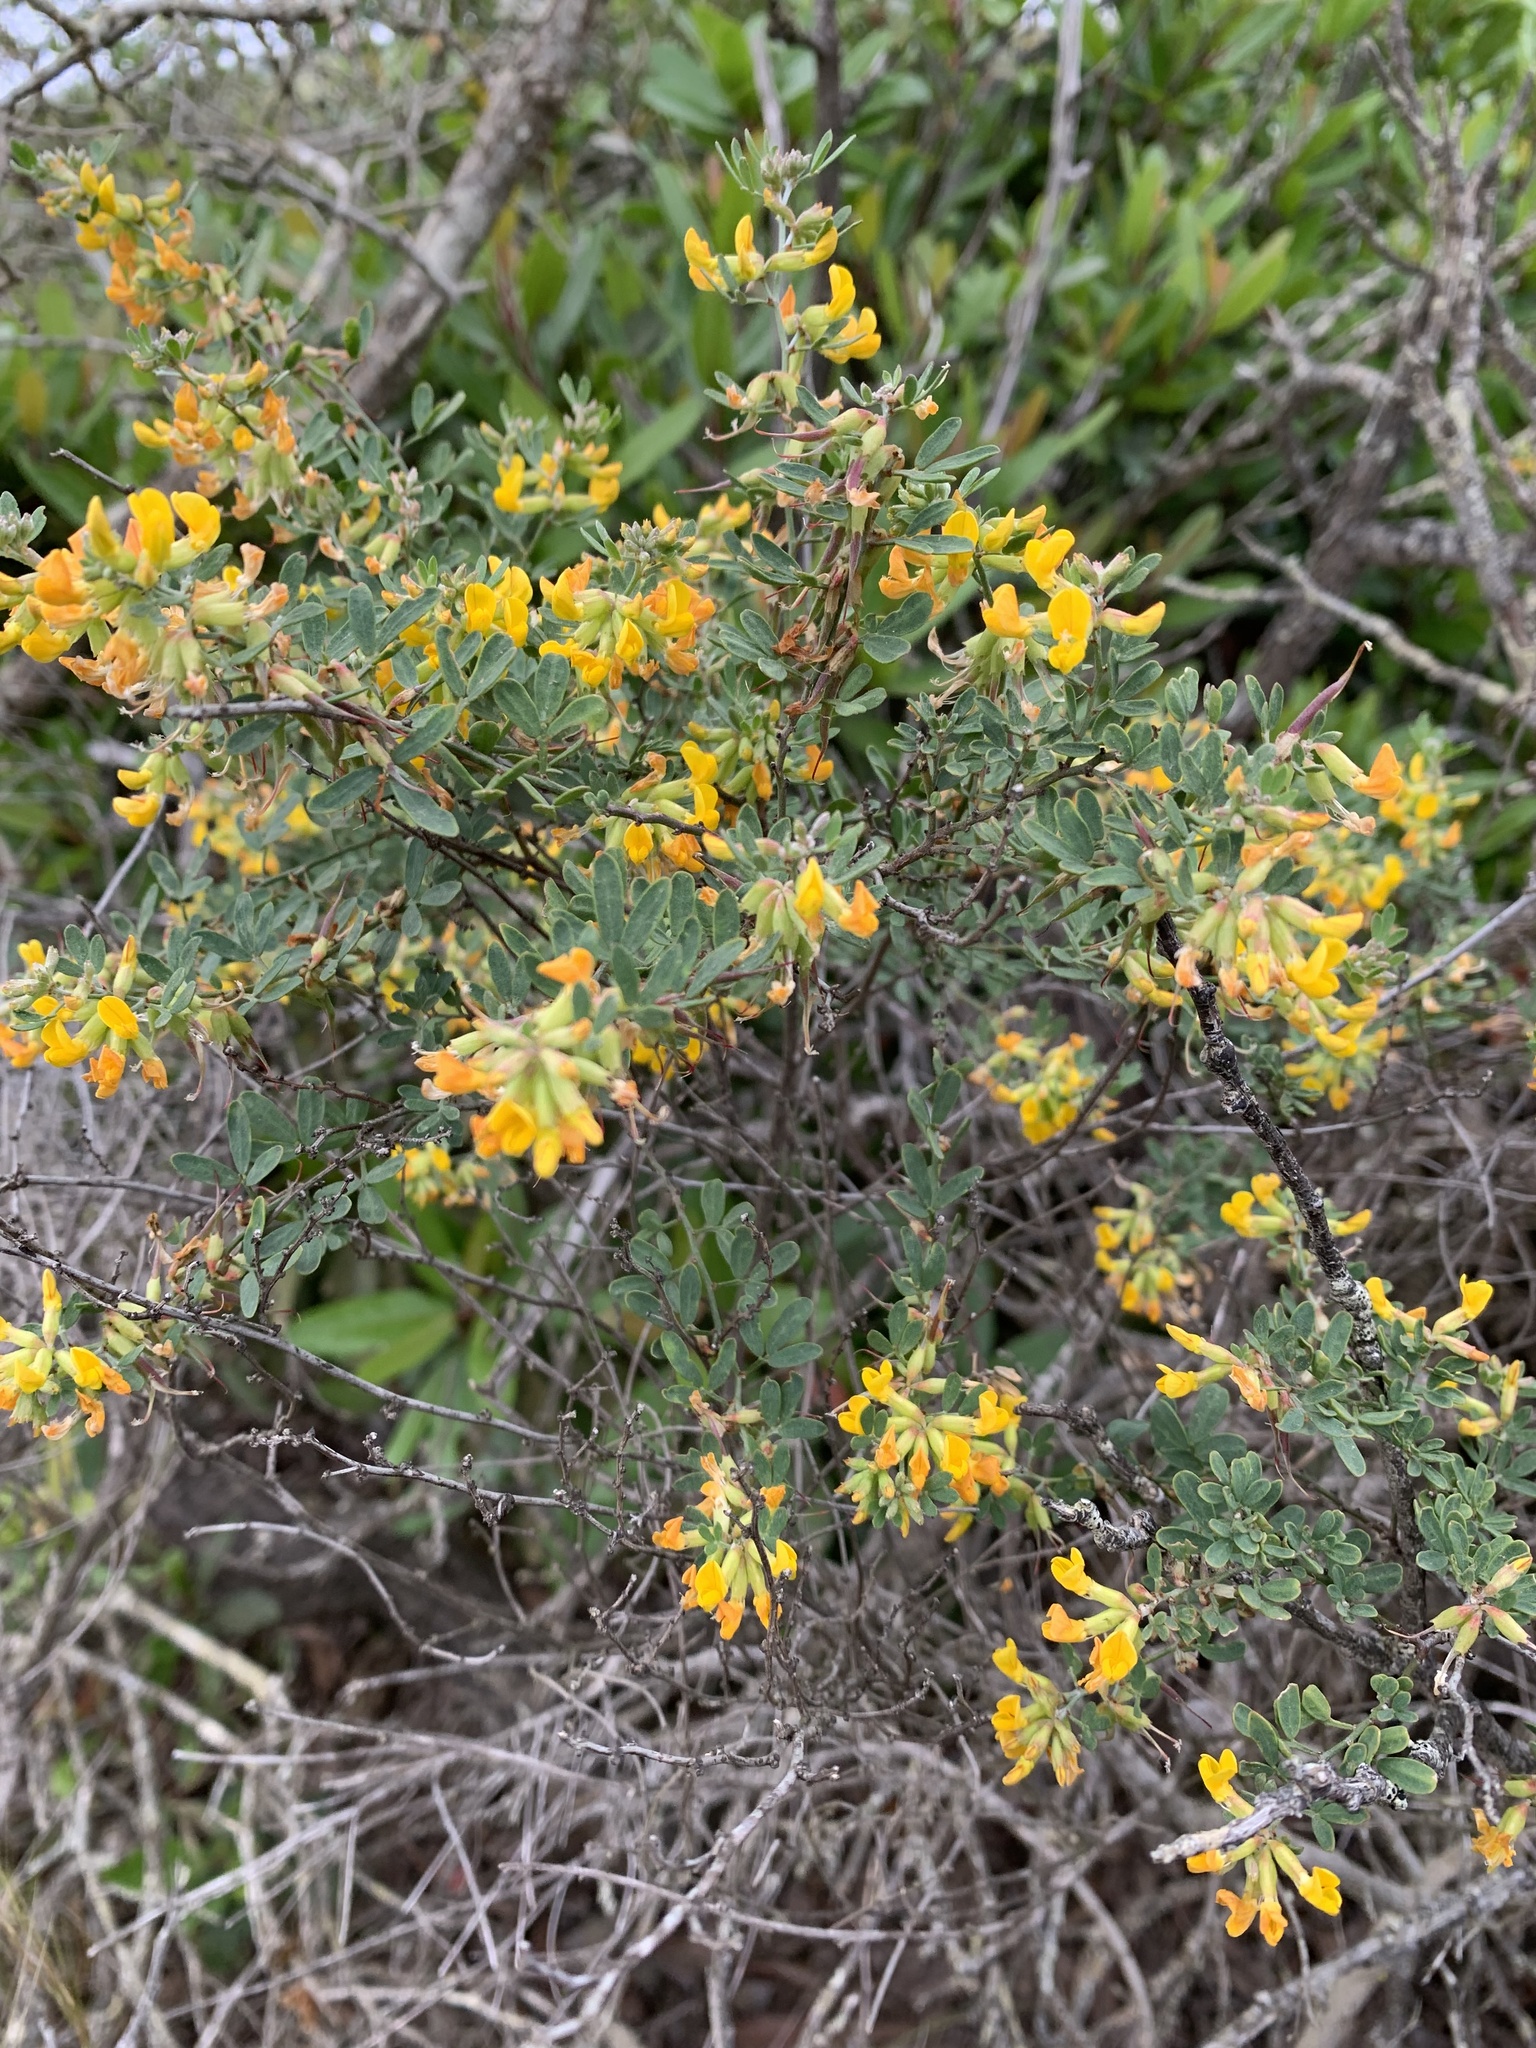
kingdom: Plantae
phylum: Tracheophyta
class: Magnoliopsida
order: Fabales
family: Fabaceae
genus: Acmispon
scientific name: Acmispon dendroideus
